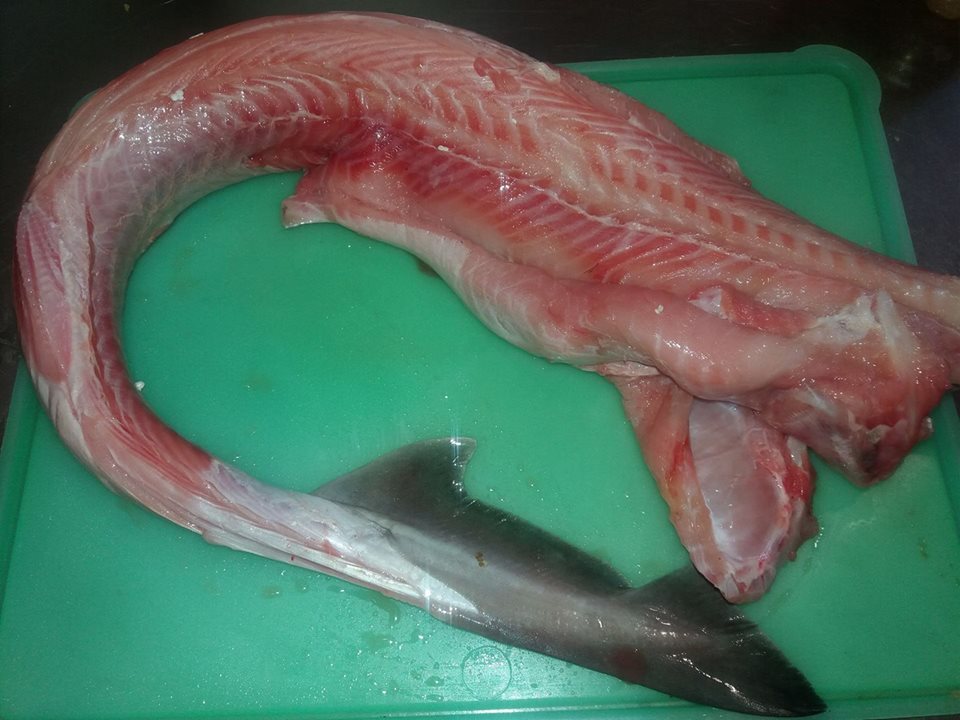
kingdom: Animalia
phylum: Chordata
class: Elasmobranchii
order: Carcharhiniformes
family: Triakidae
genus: Mustelus
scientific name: Mustelus mustelus
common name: Smooth-hound
